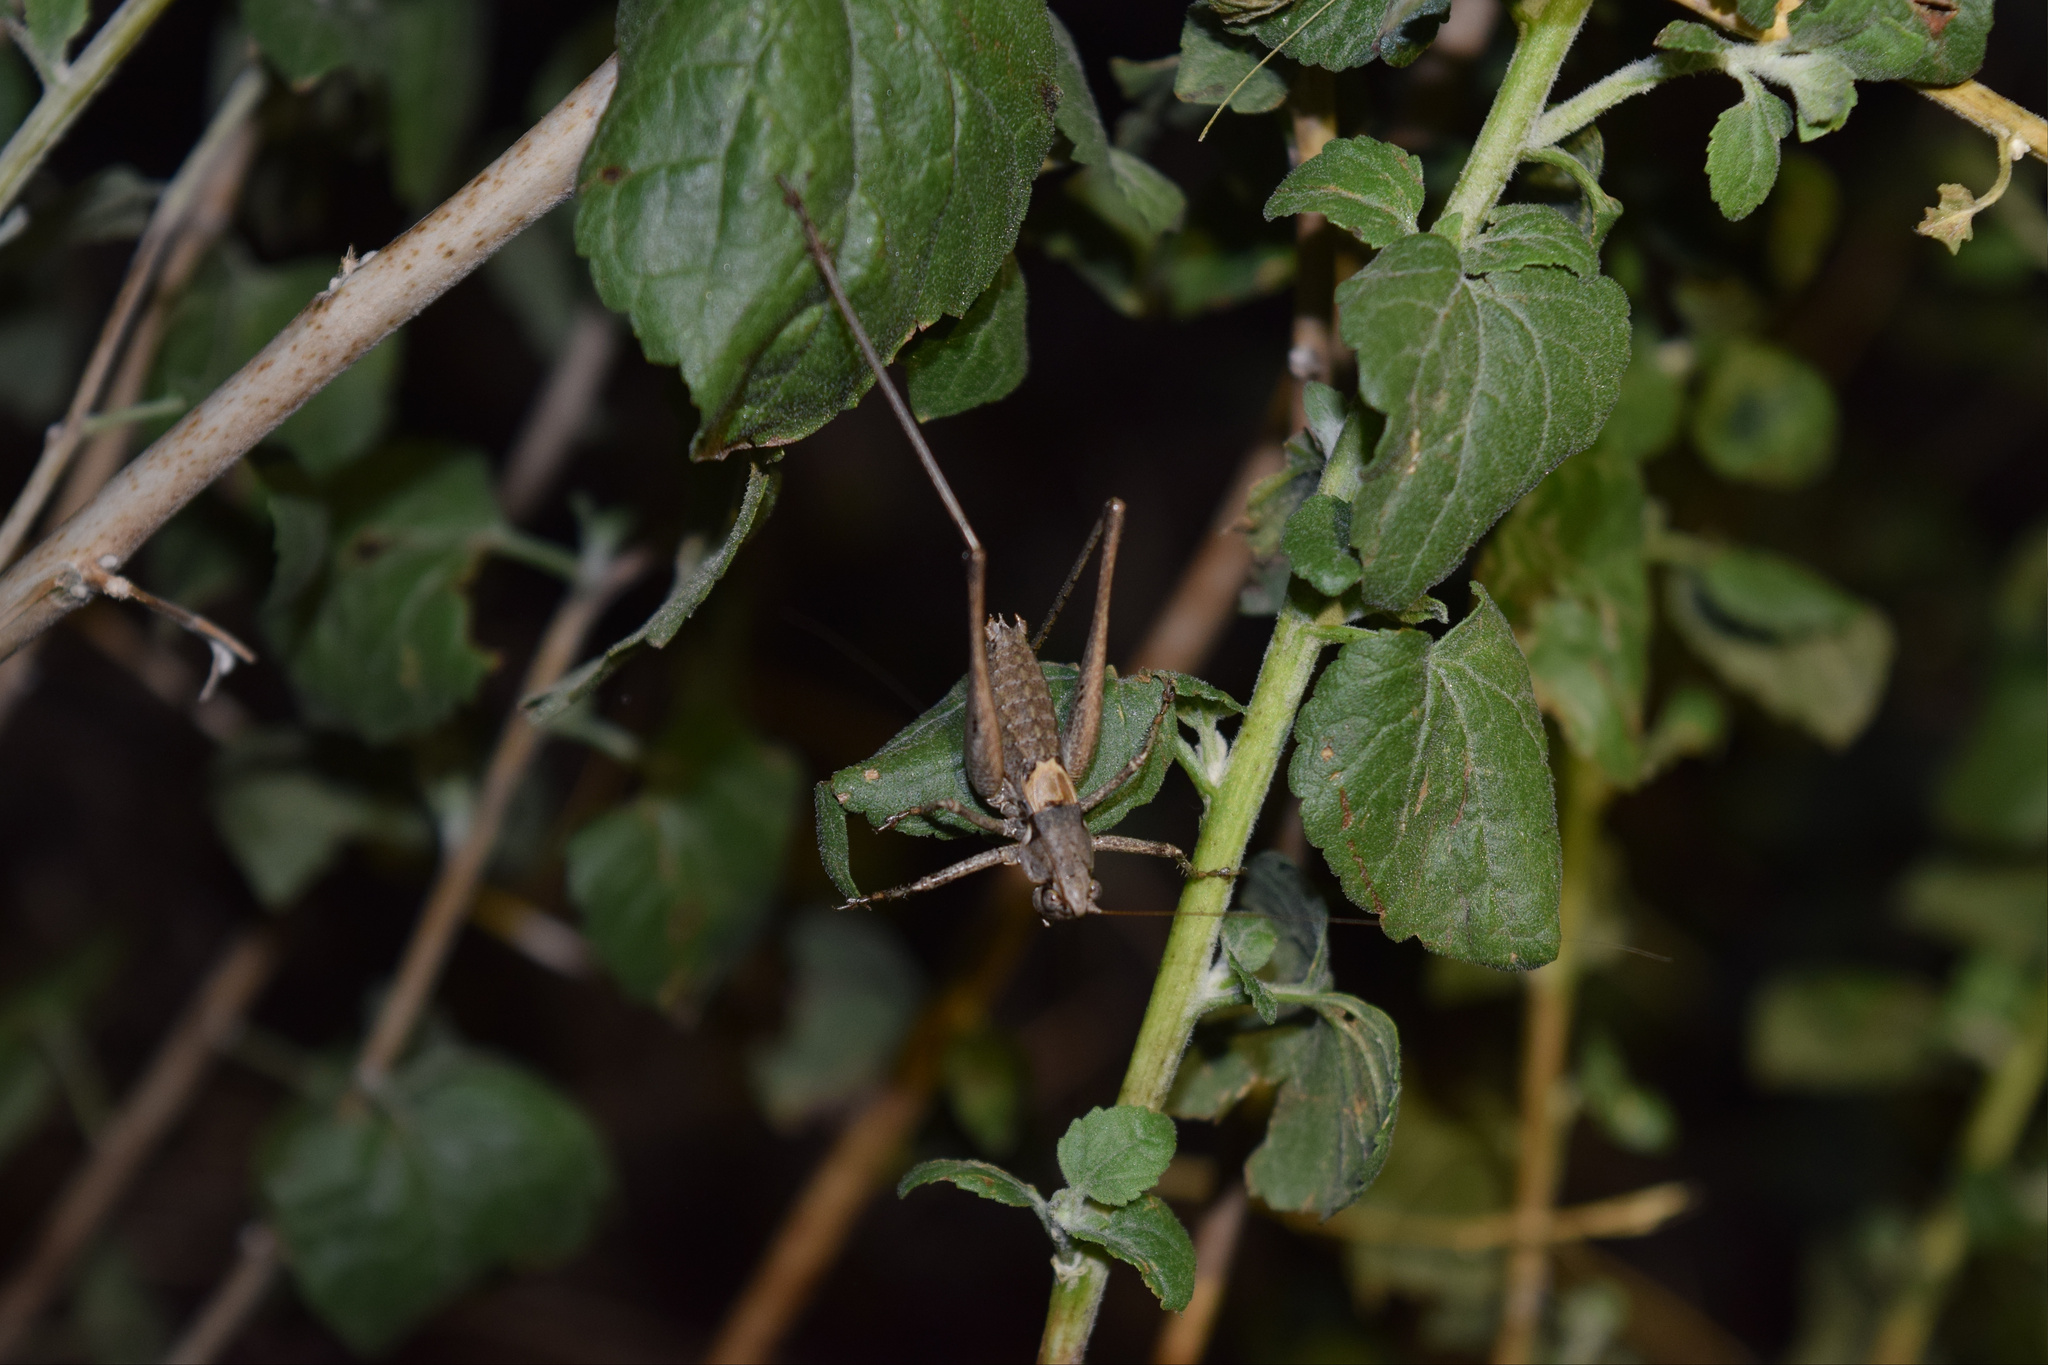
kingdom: Animalia
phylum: Arthropoda
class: Insecta
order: Orthoptera
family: Tettigoniidae
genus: Idiostatus
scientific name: Idiostatus aequalis
